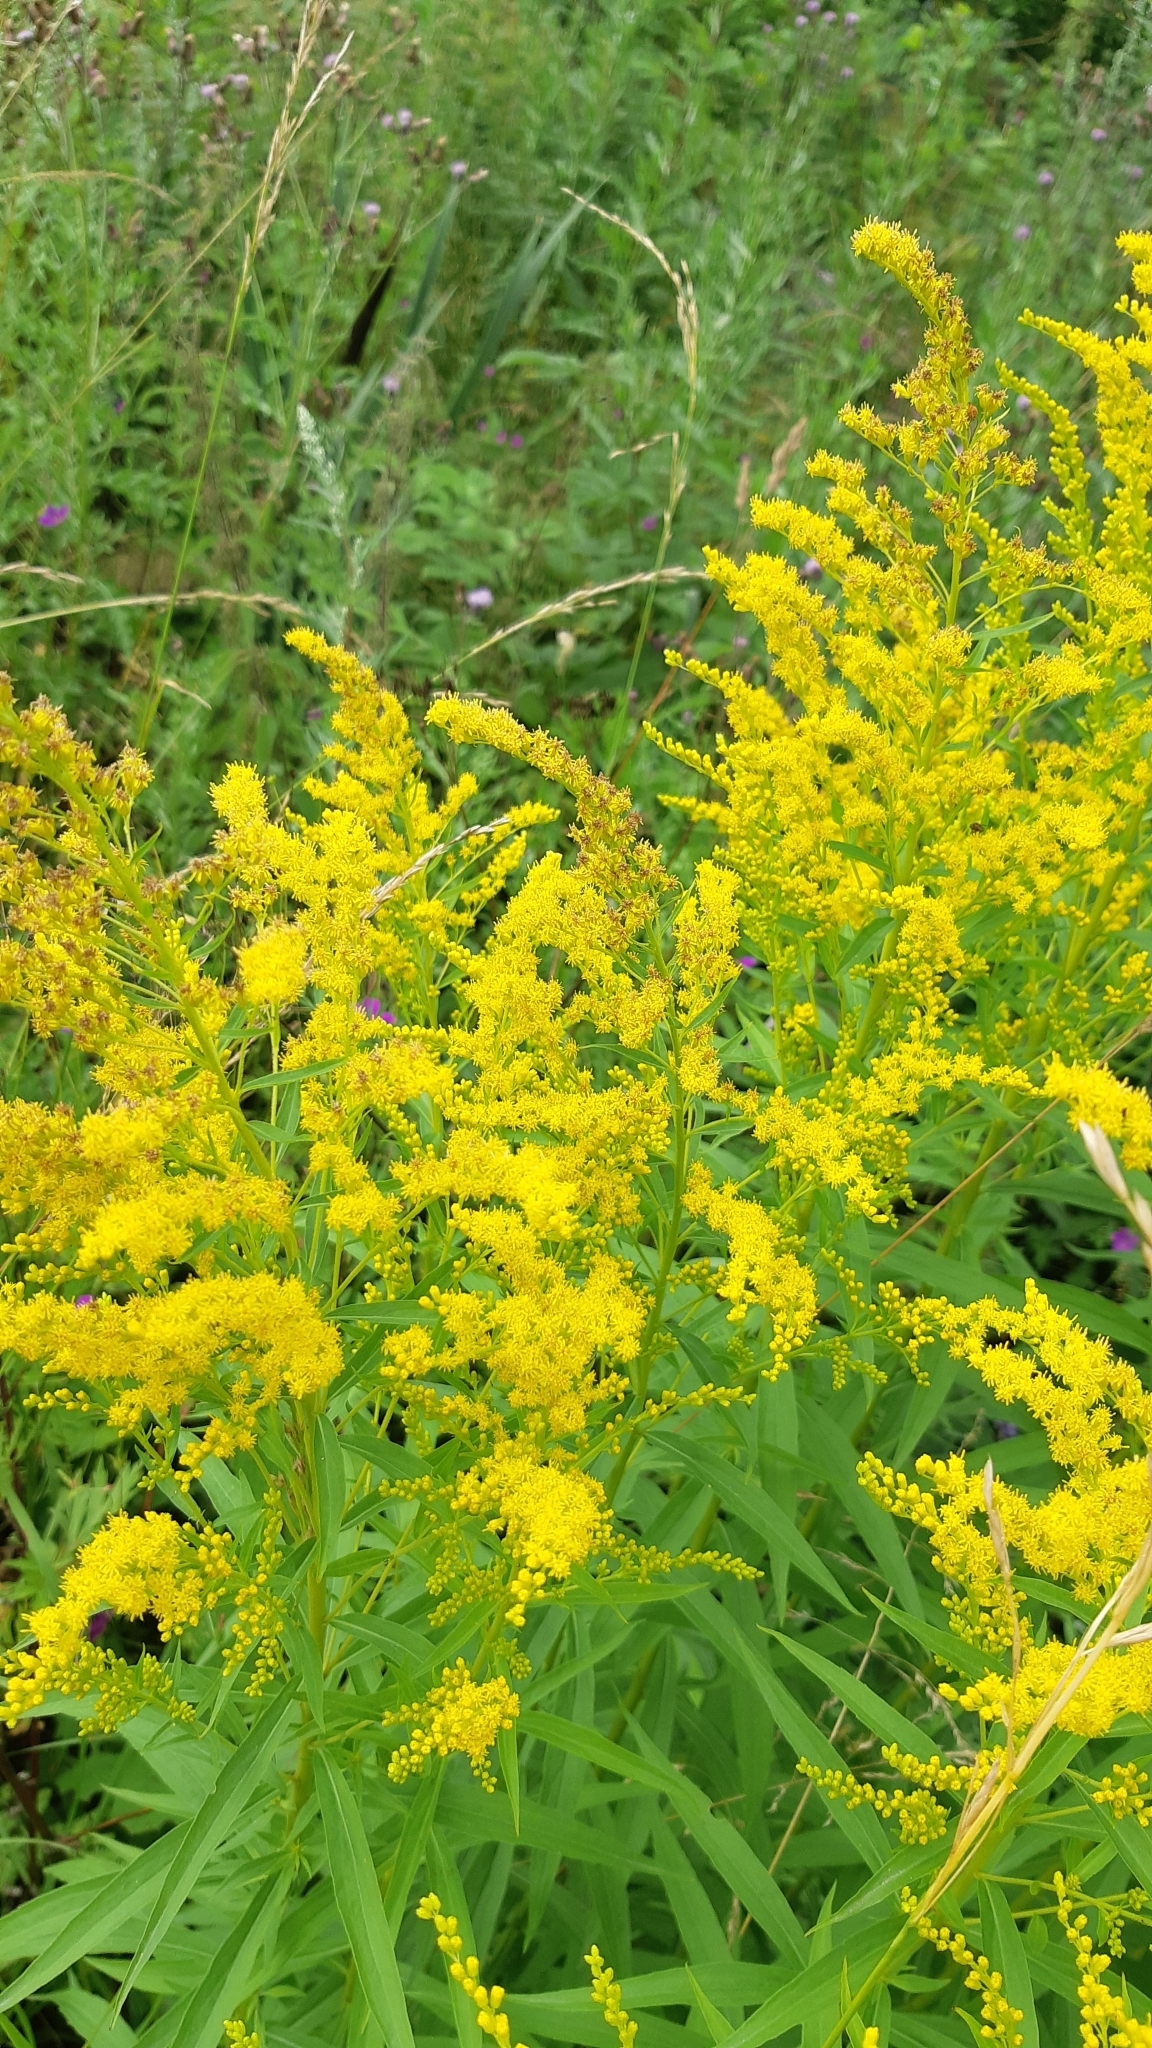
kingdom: Plantae
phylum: Tracheophyta
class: Magnoliopsida
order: Asterales
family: Asteraceae
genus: Solidago
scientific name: Solidago canadensis
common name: Canada goldenrod
